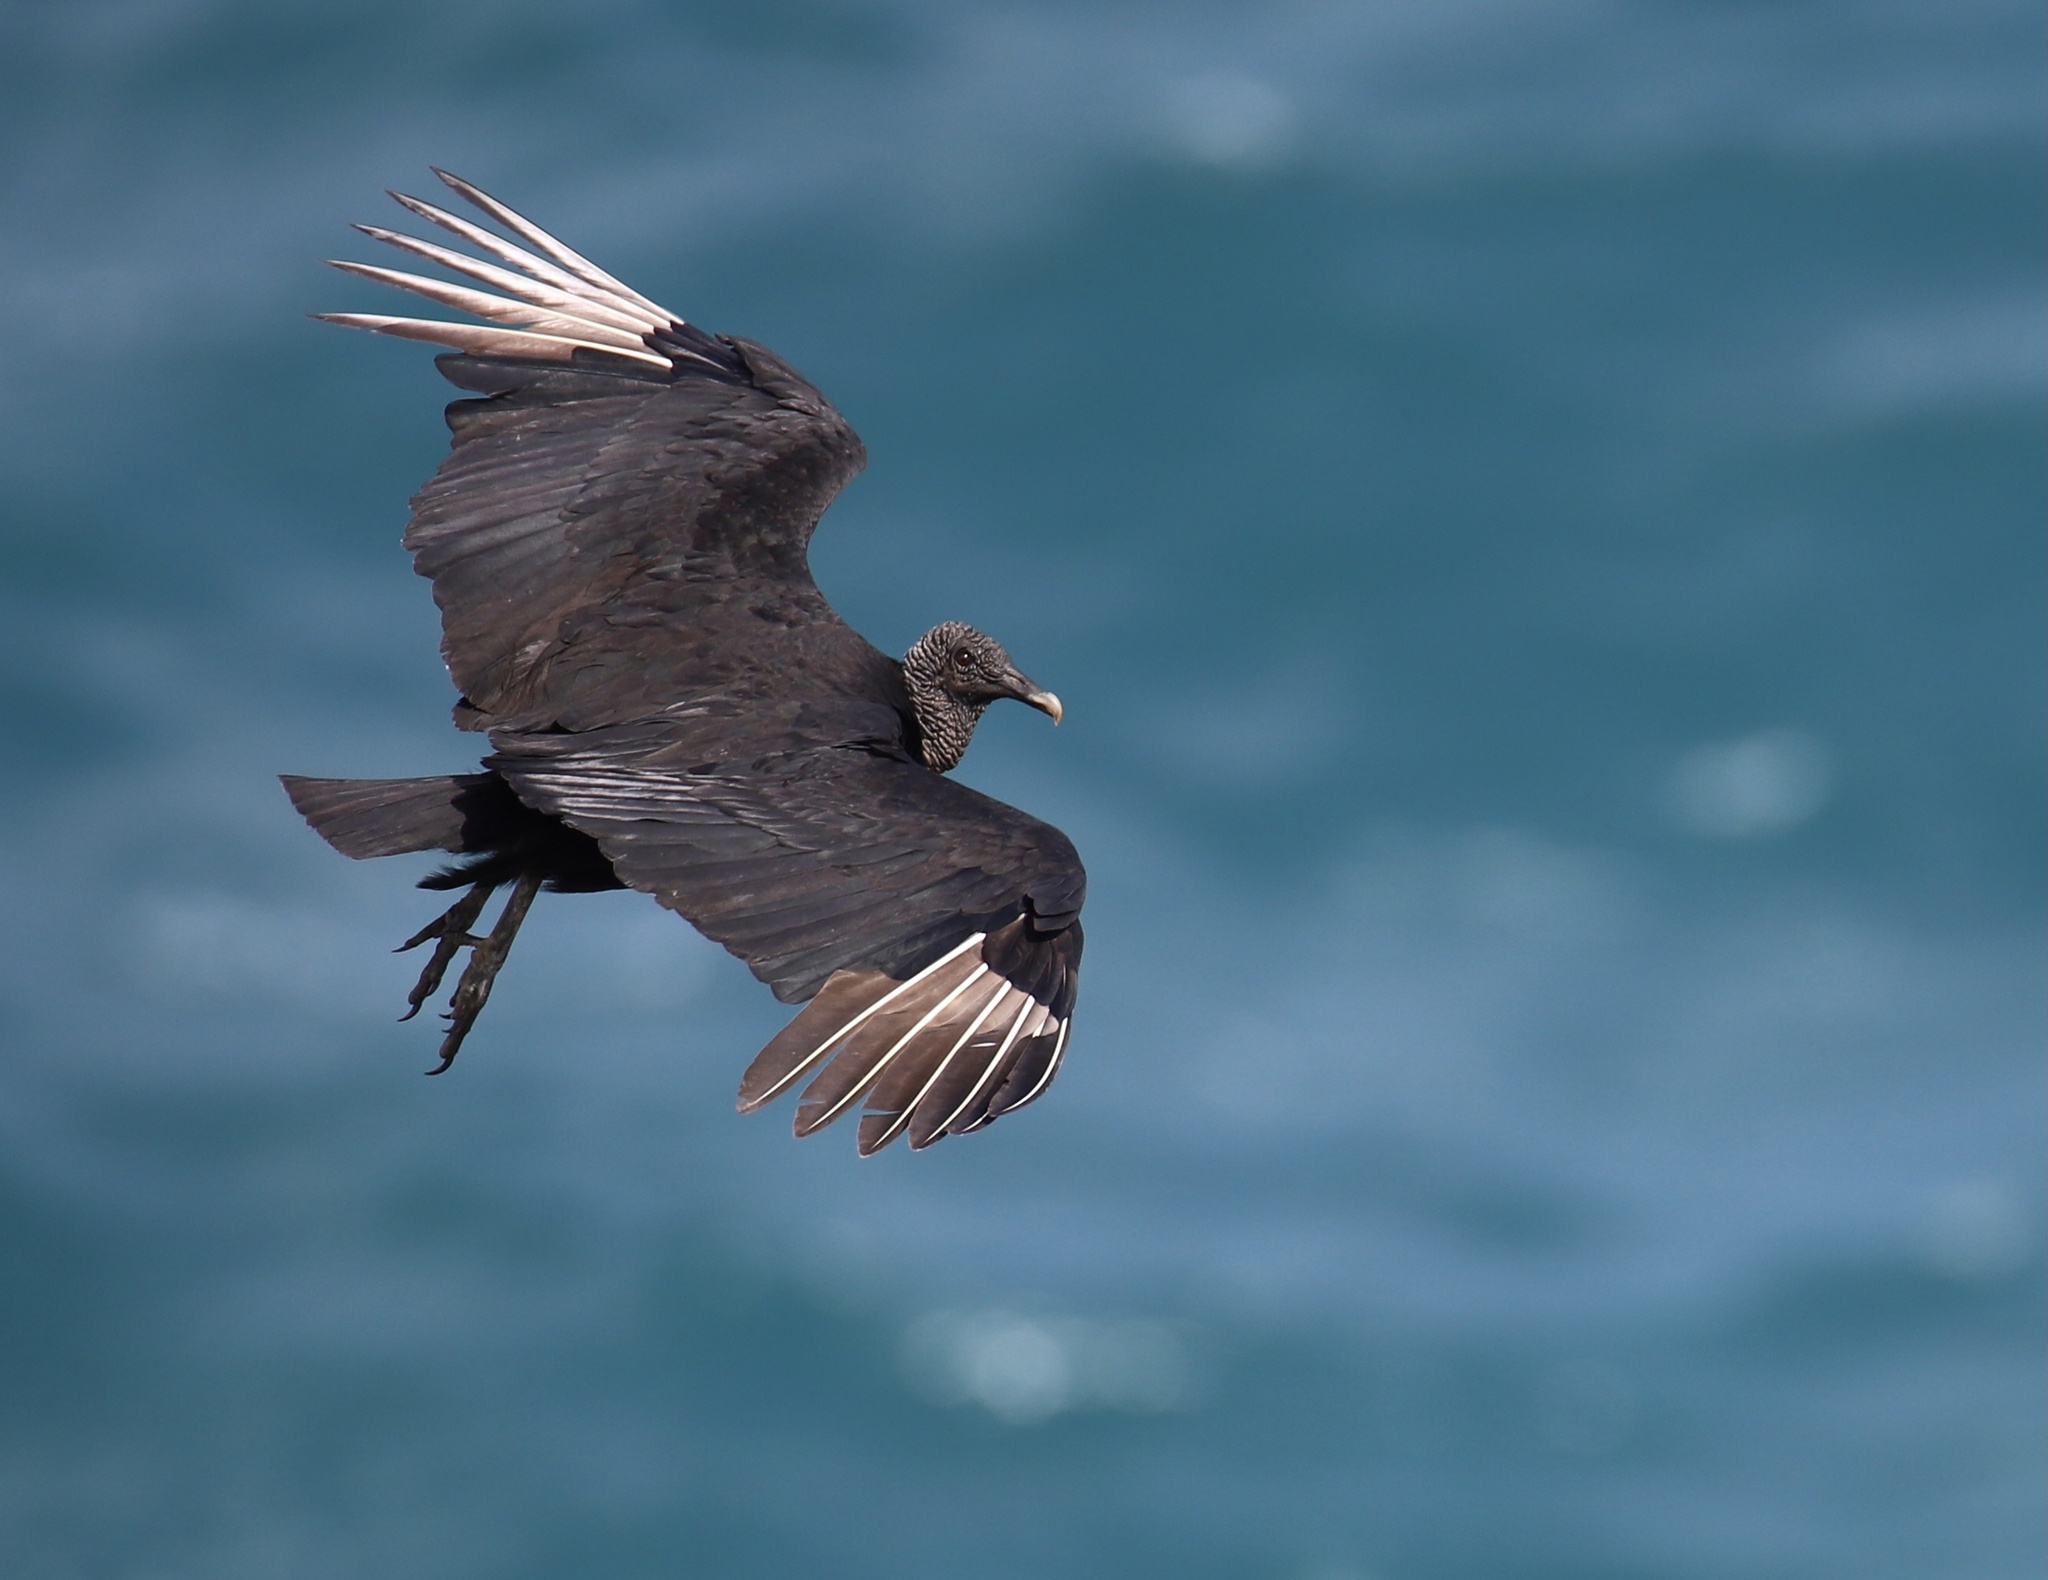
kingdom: Animalia
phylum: Chordata
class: Aves
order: Accipitriformes
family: Cathartidae
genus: Coragyps
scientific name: Coragyps atratus
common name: Black vulture
